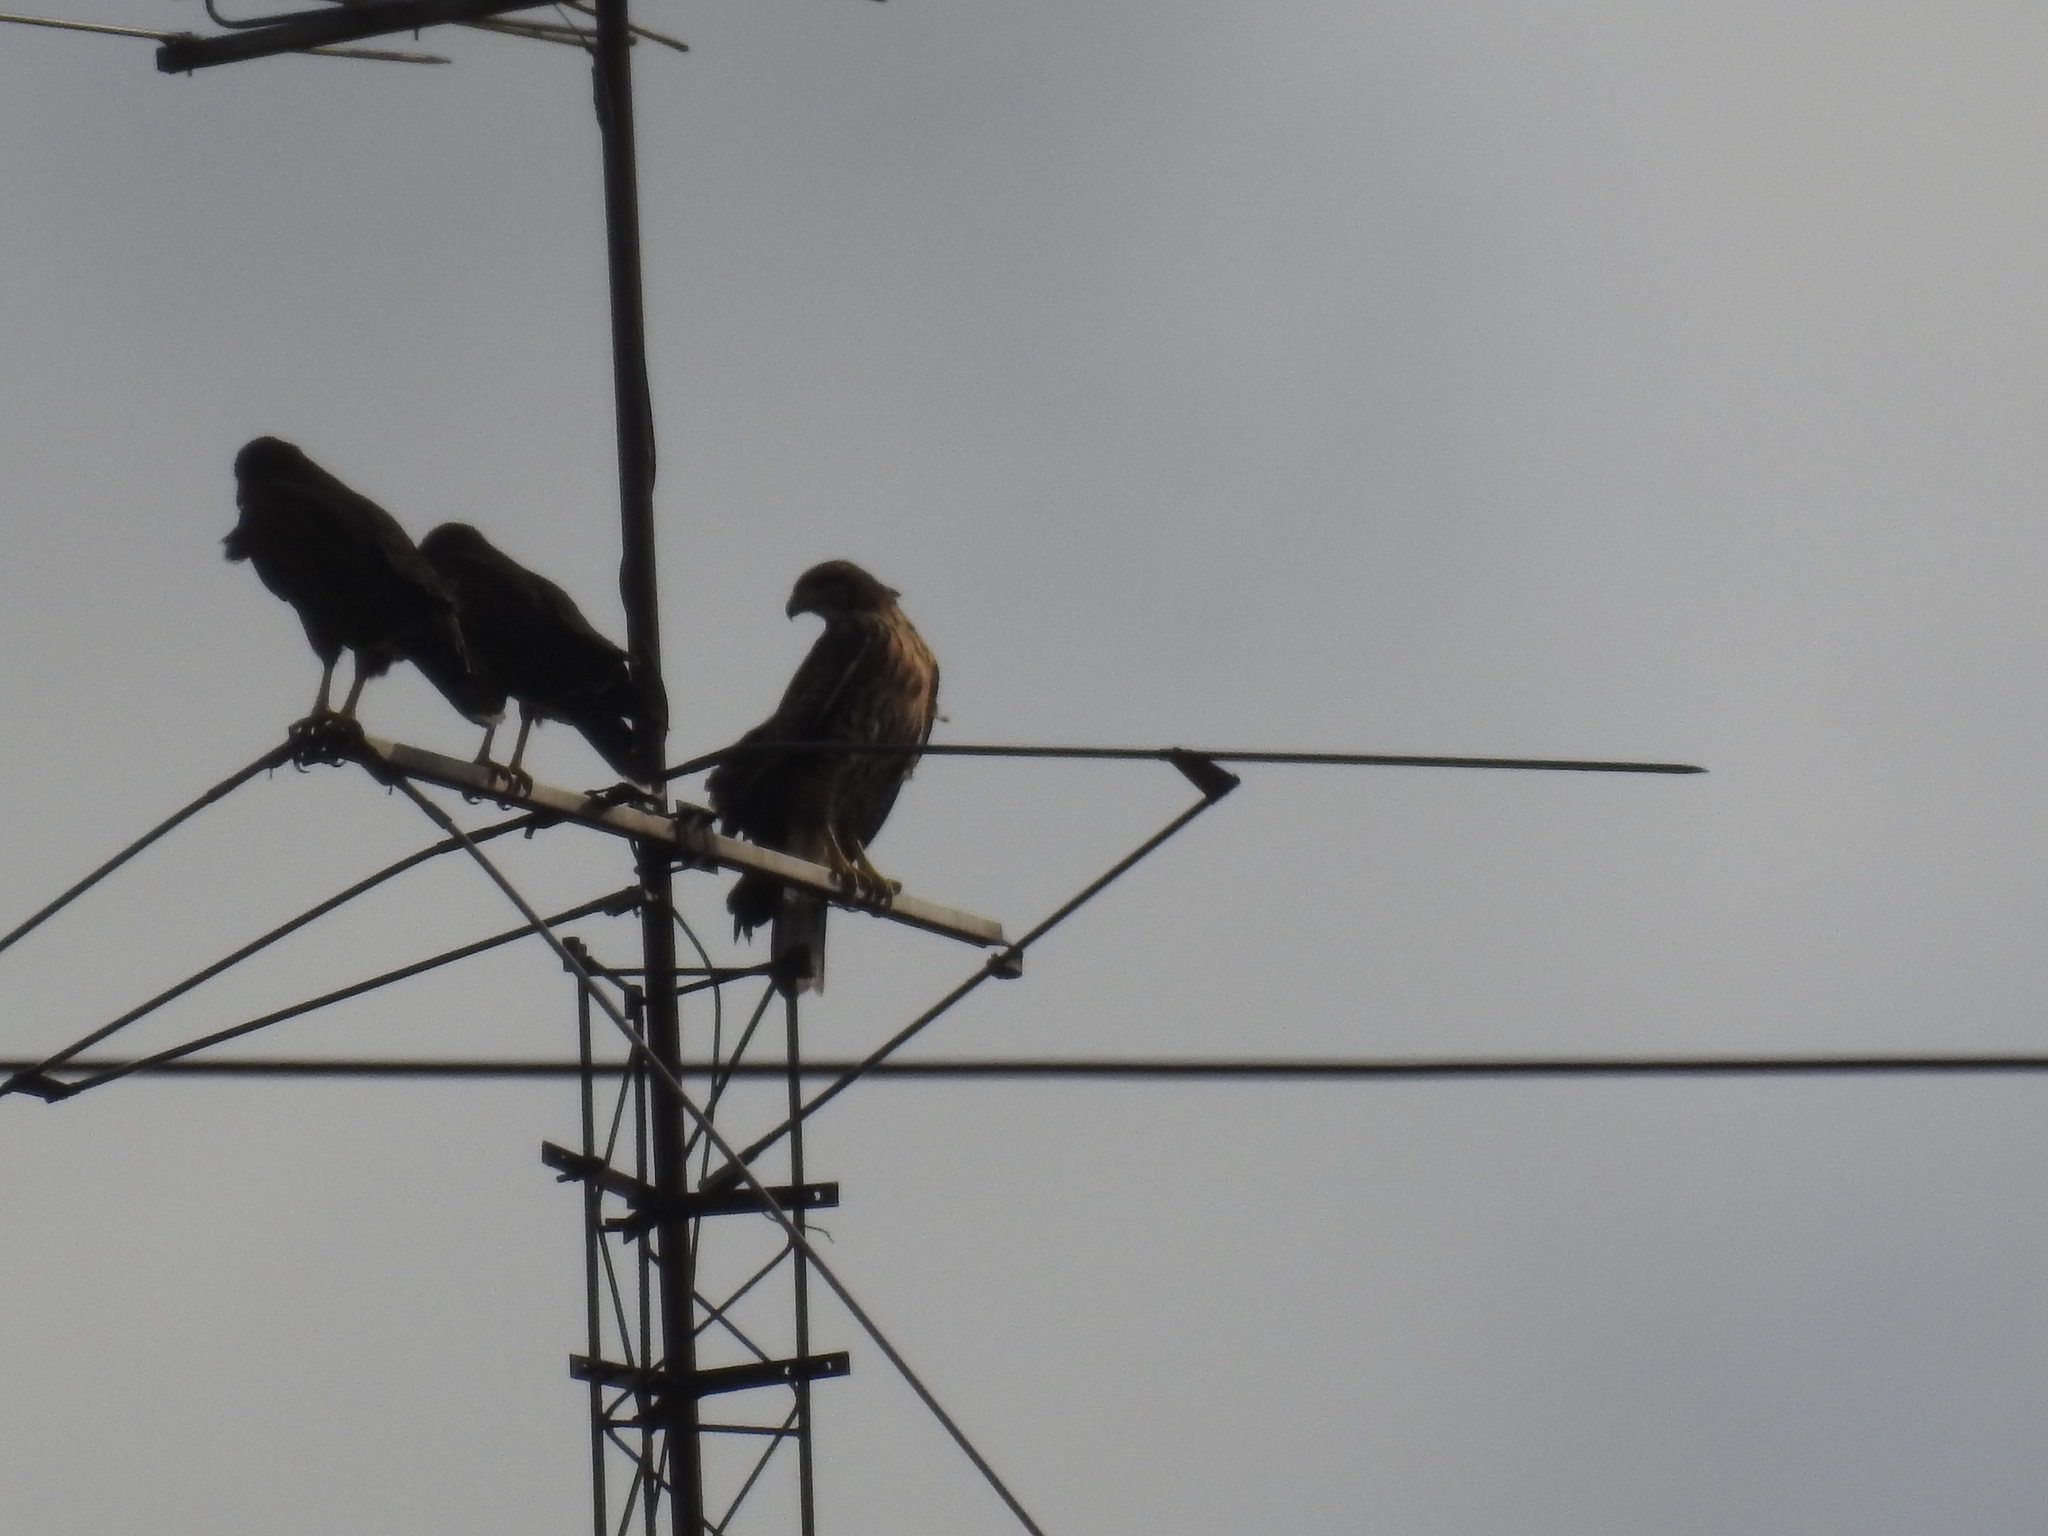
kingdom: Animalia
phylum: Chordata
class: Aves
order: Accipitriformes
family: Accipitridae
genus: Parabuteo
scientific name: Parabuteo unicinctus
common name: Harris's hawk
